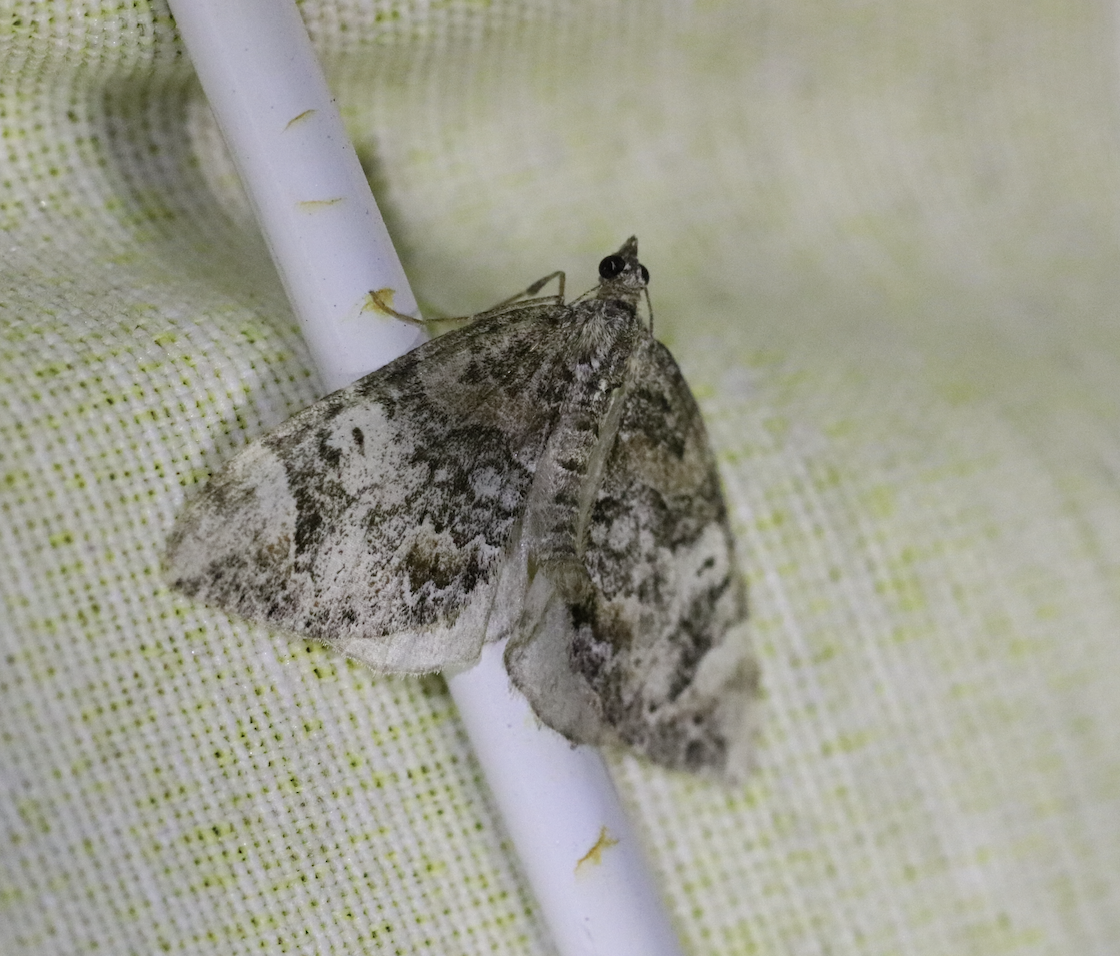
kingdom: Animalia
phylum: Arthropoda
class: Insecta
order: Lepidoptera
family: Geometridae
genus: Dysstroma
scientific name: Dysstroma citrata
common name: Dark marbled carpet
